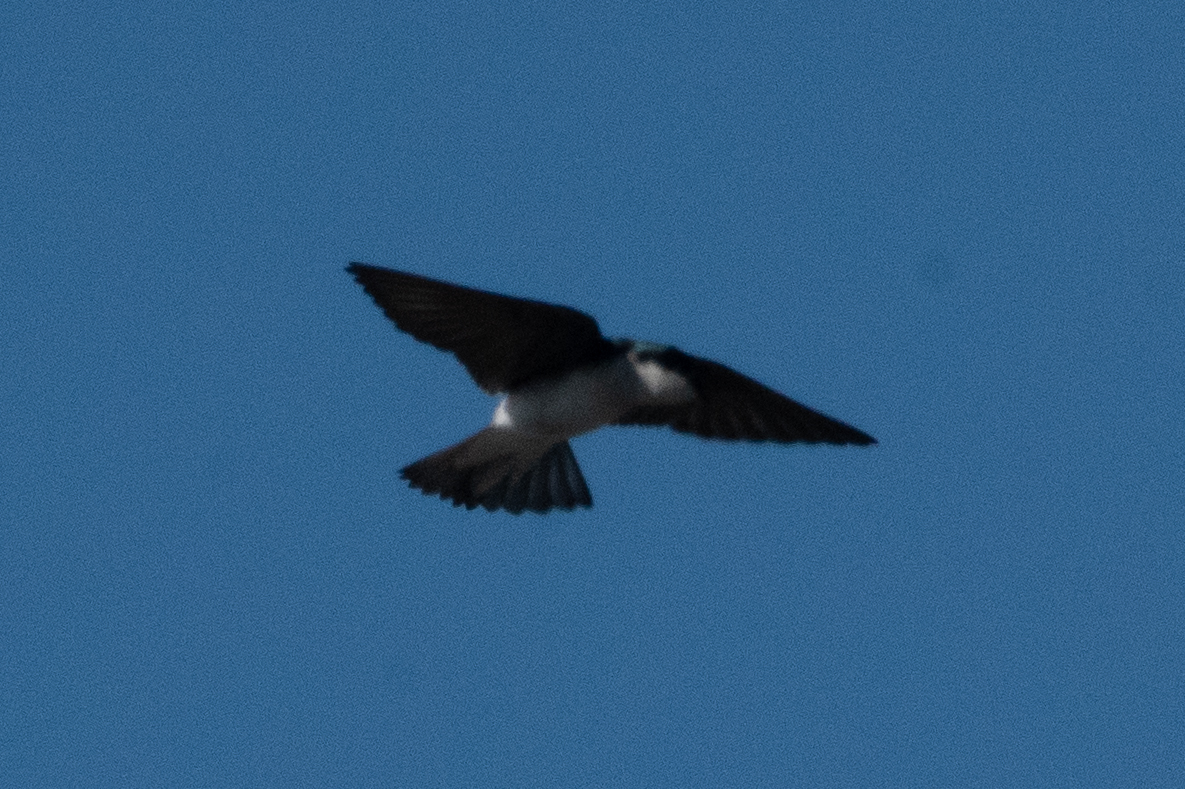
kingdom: Animalia
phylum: Chordata
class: Aves
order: Passeriformes
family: Hirundinidae
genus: Tachycineta
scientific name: Tachycineta bicolor
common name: Tree swallow
